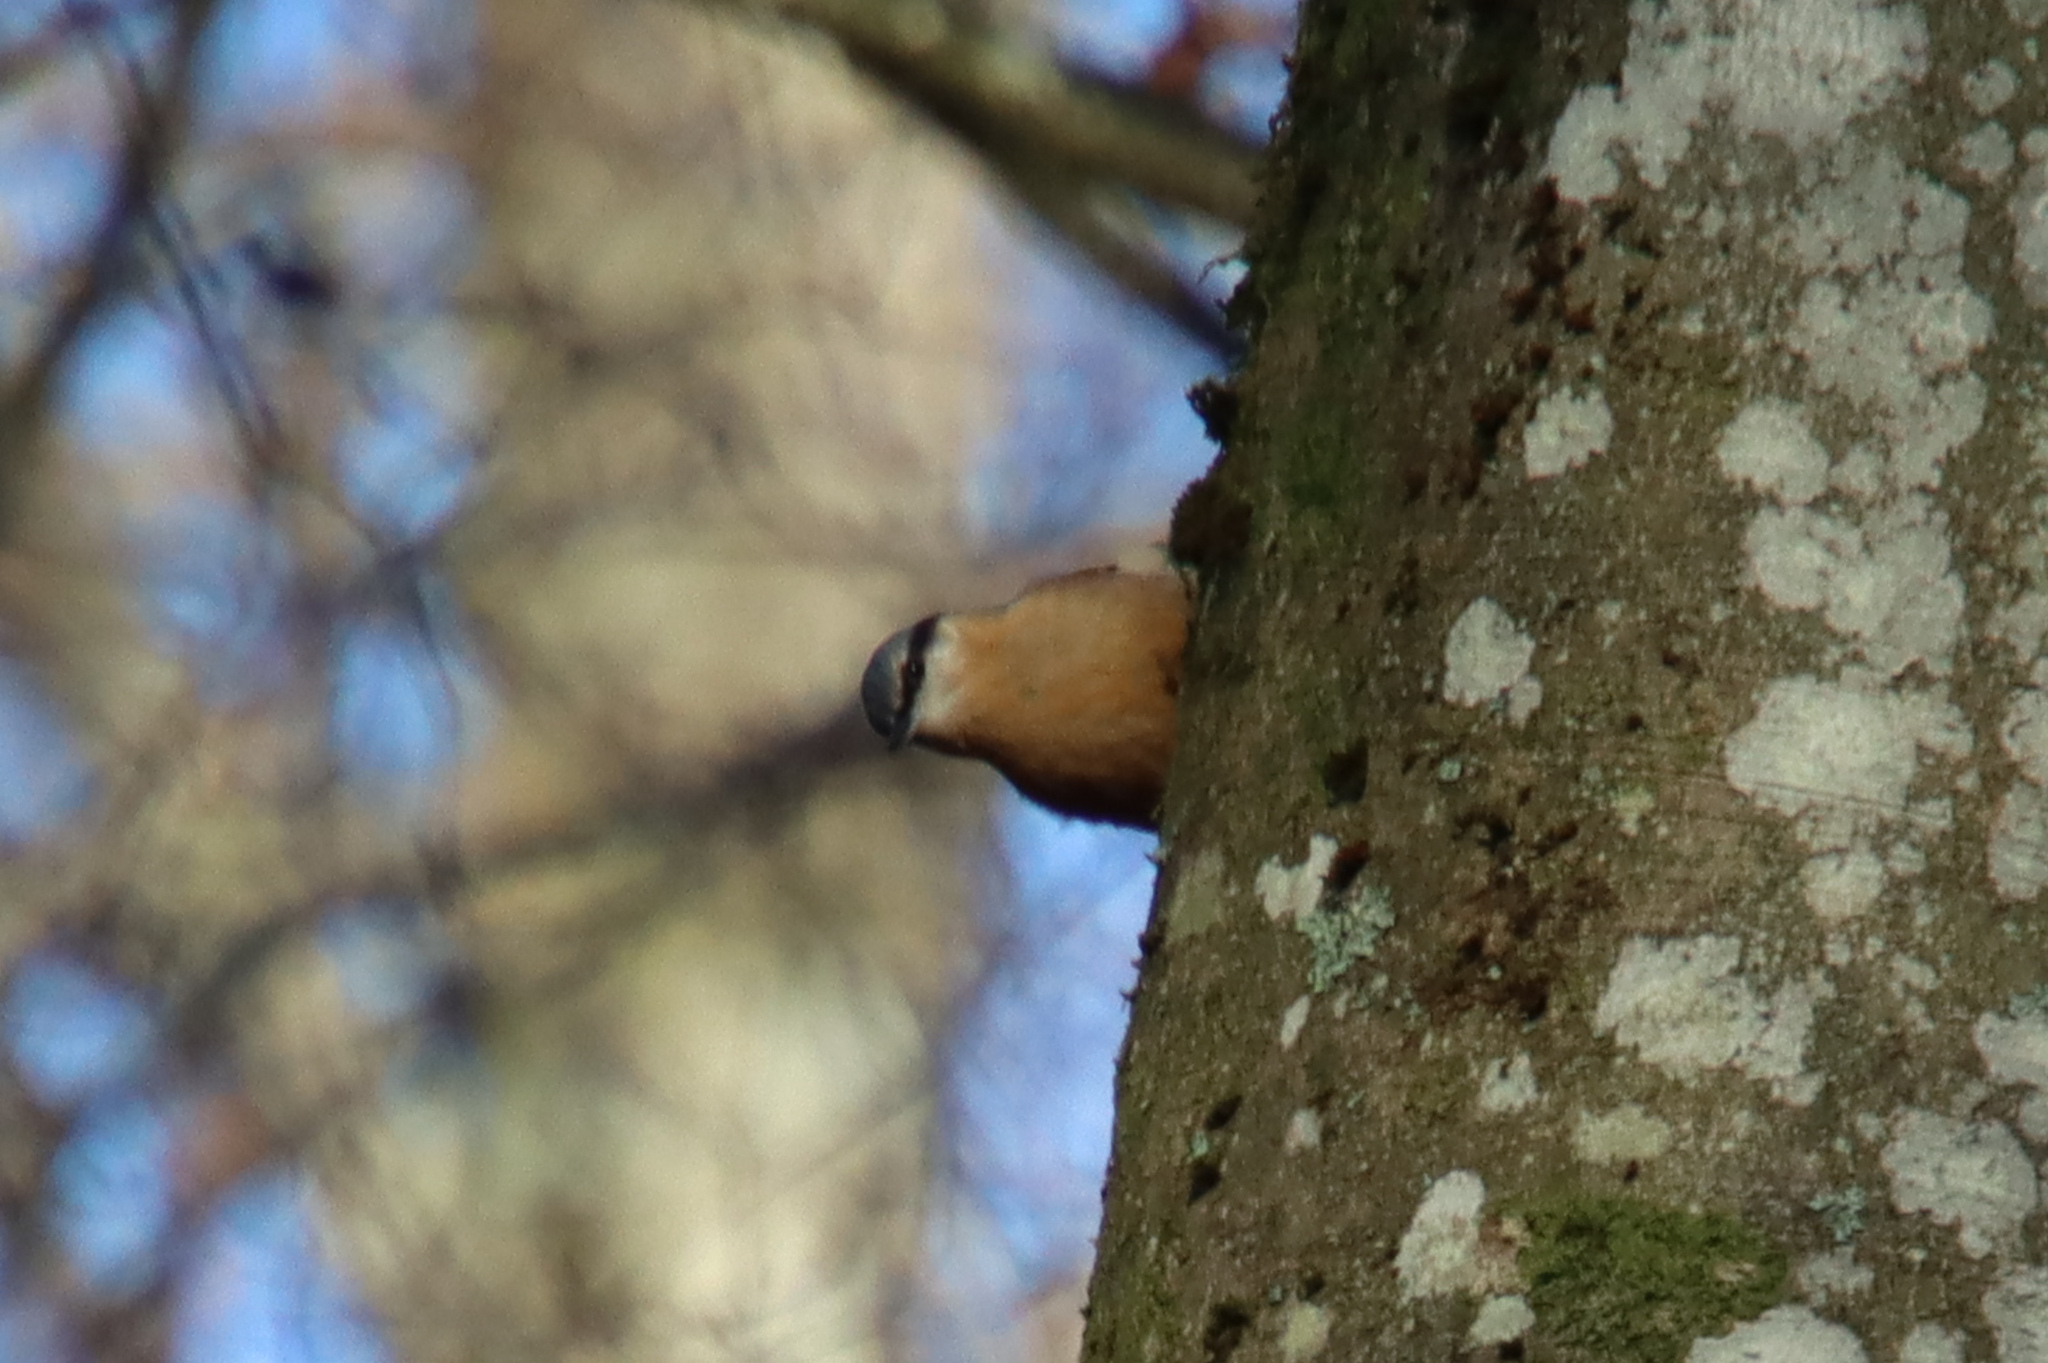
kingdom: Animalia
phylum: Chordata
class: Aves
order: Passeriformes
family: Sittidae
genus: Sitta
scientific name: Sitta europaea
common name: Eurasian nuthatch
